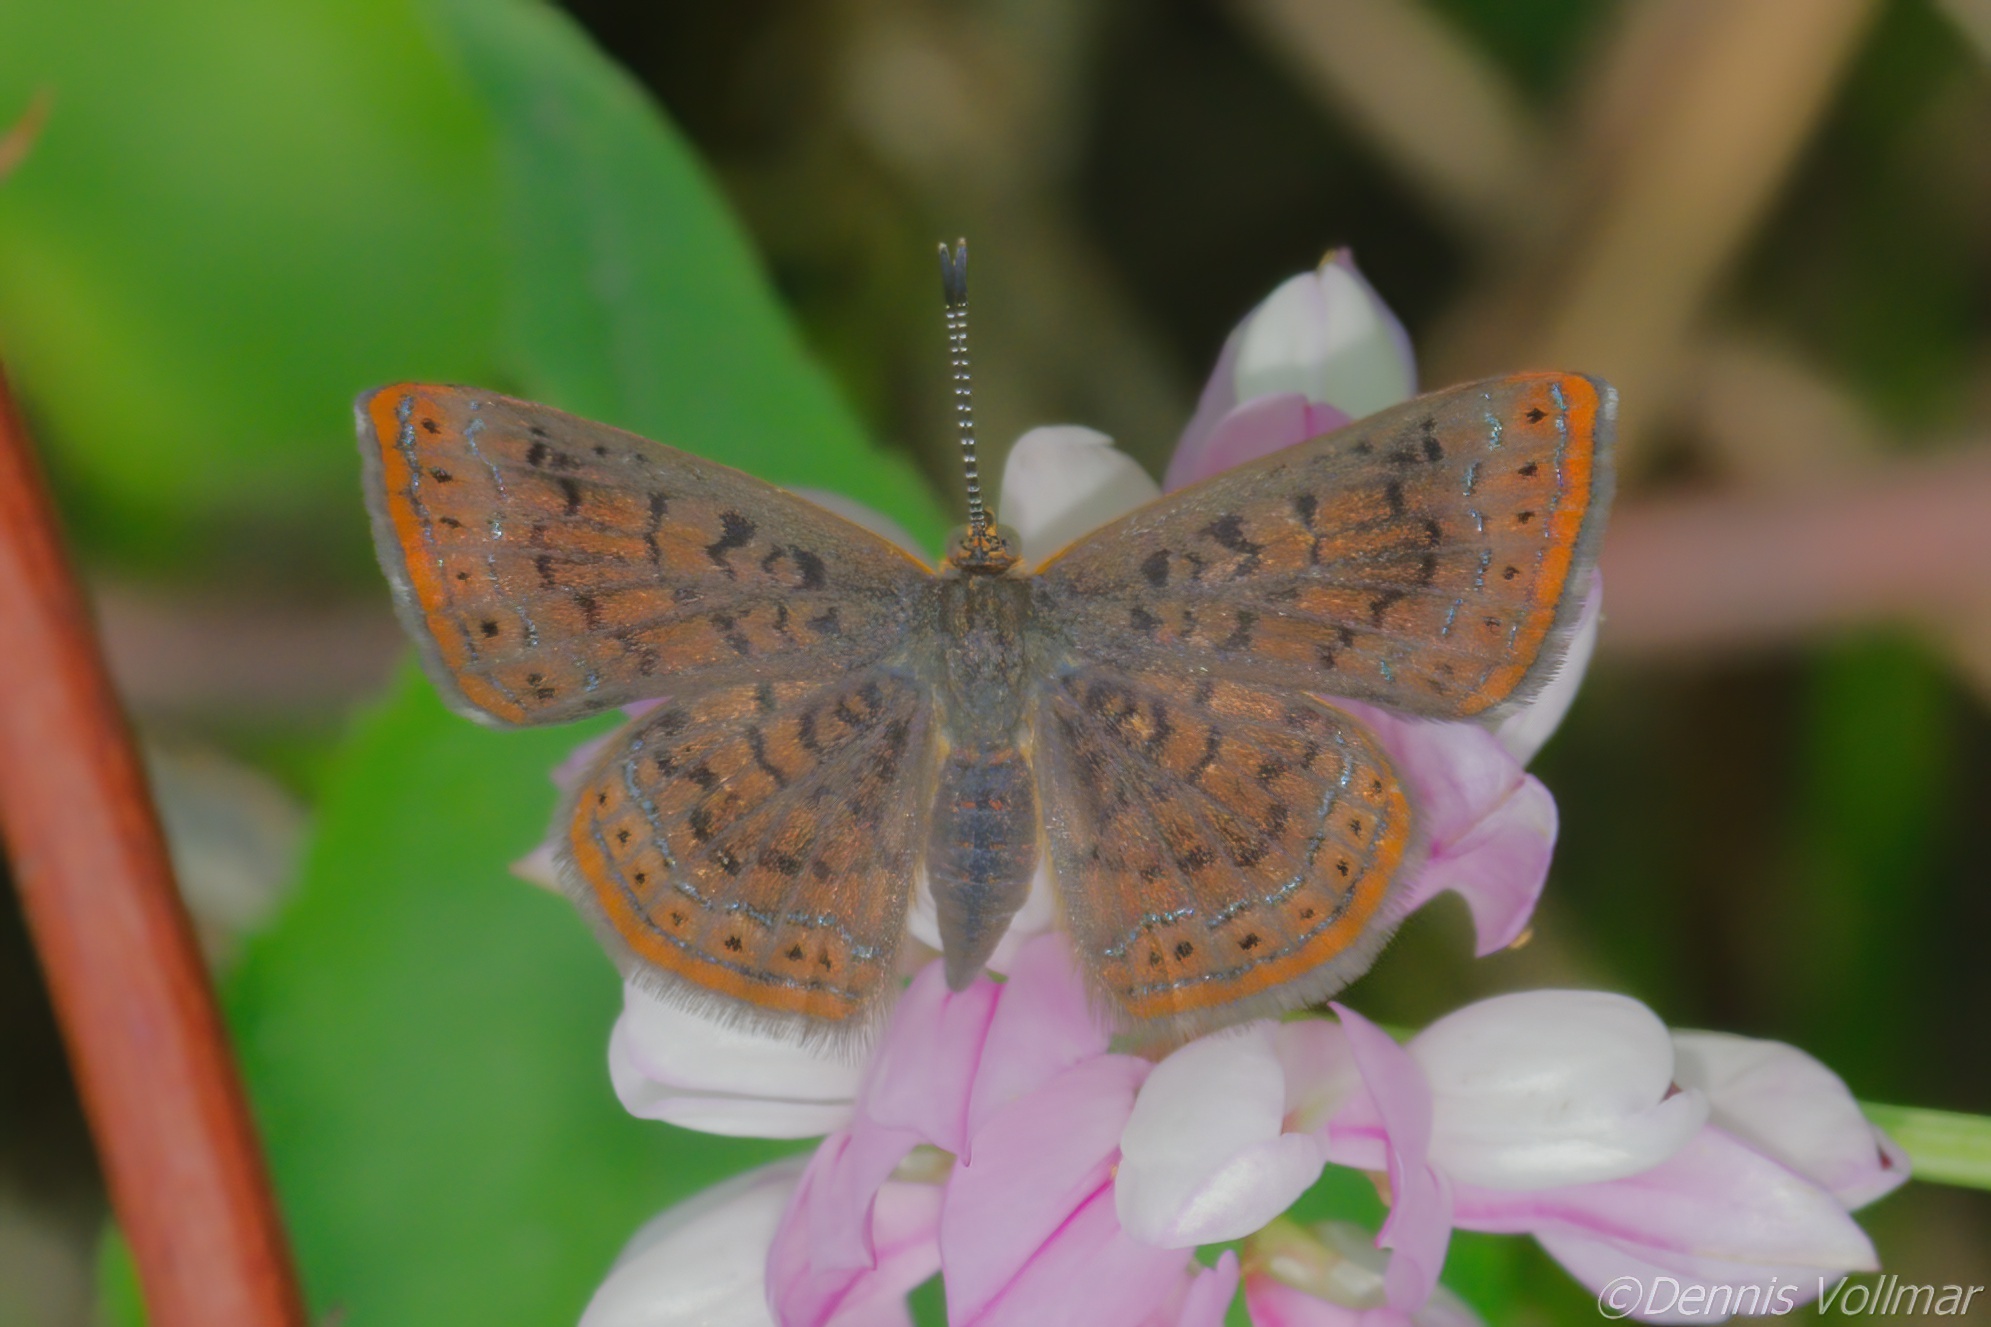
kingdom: Animalia
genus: Calephelis
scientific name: Calephelis borealis
